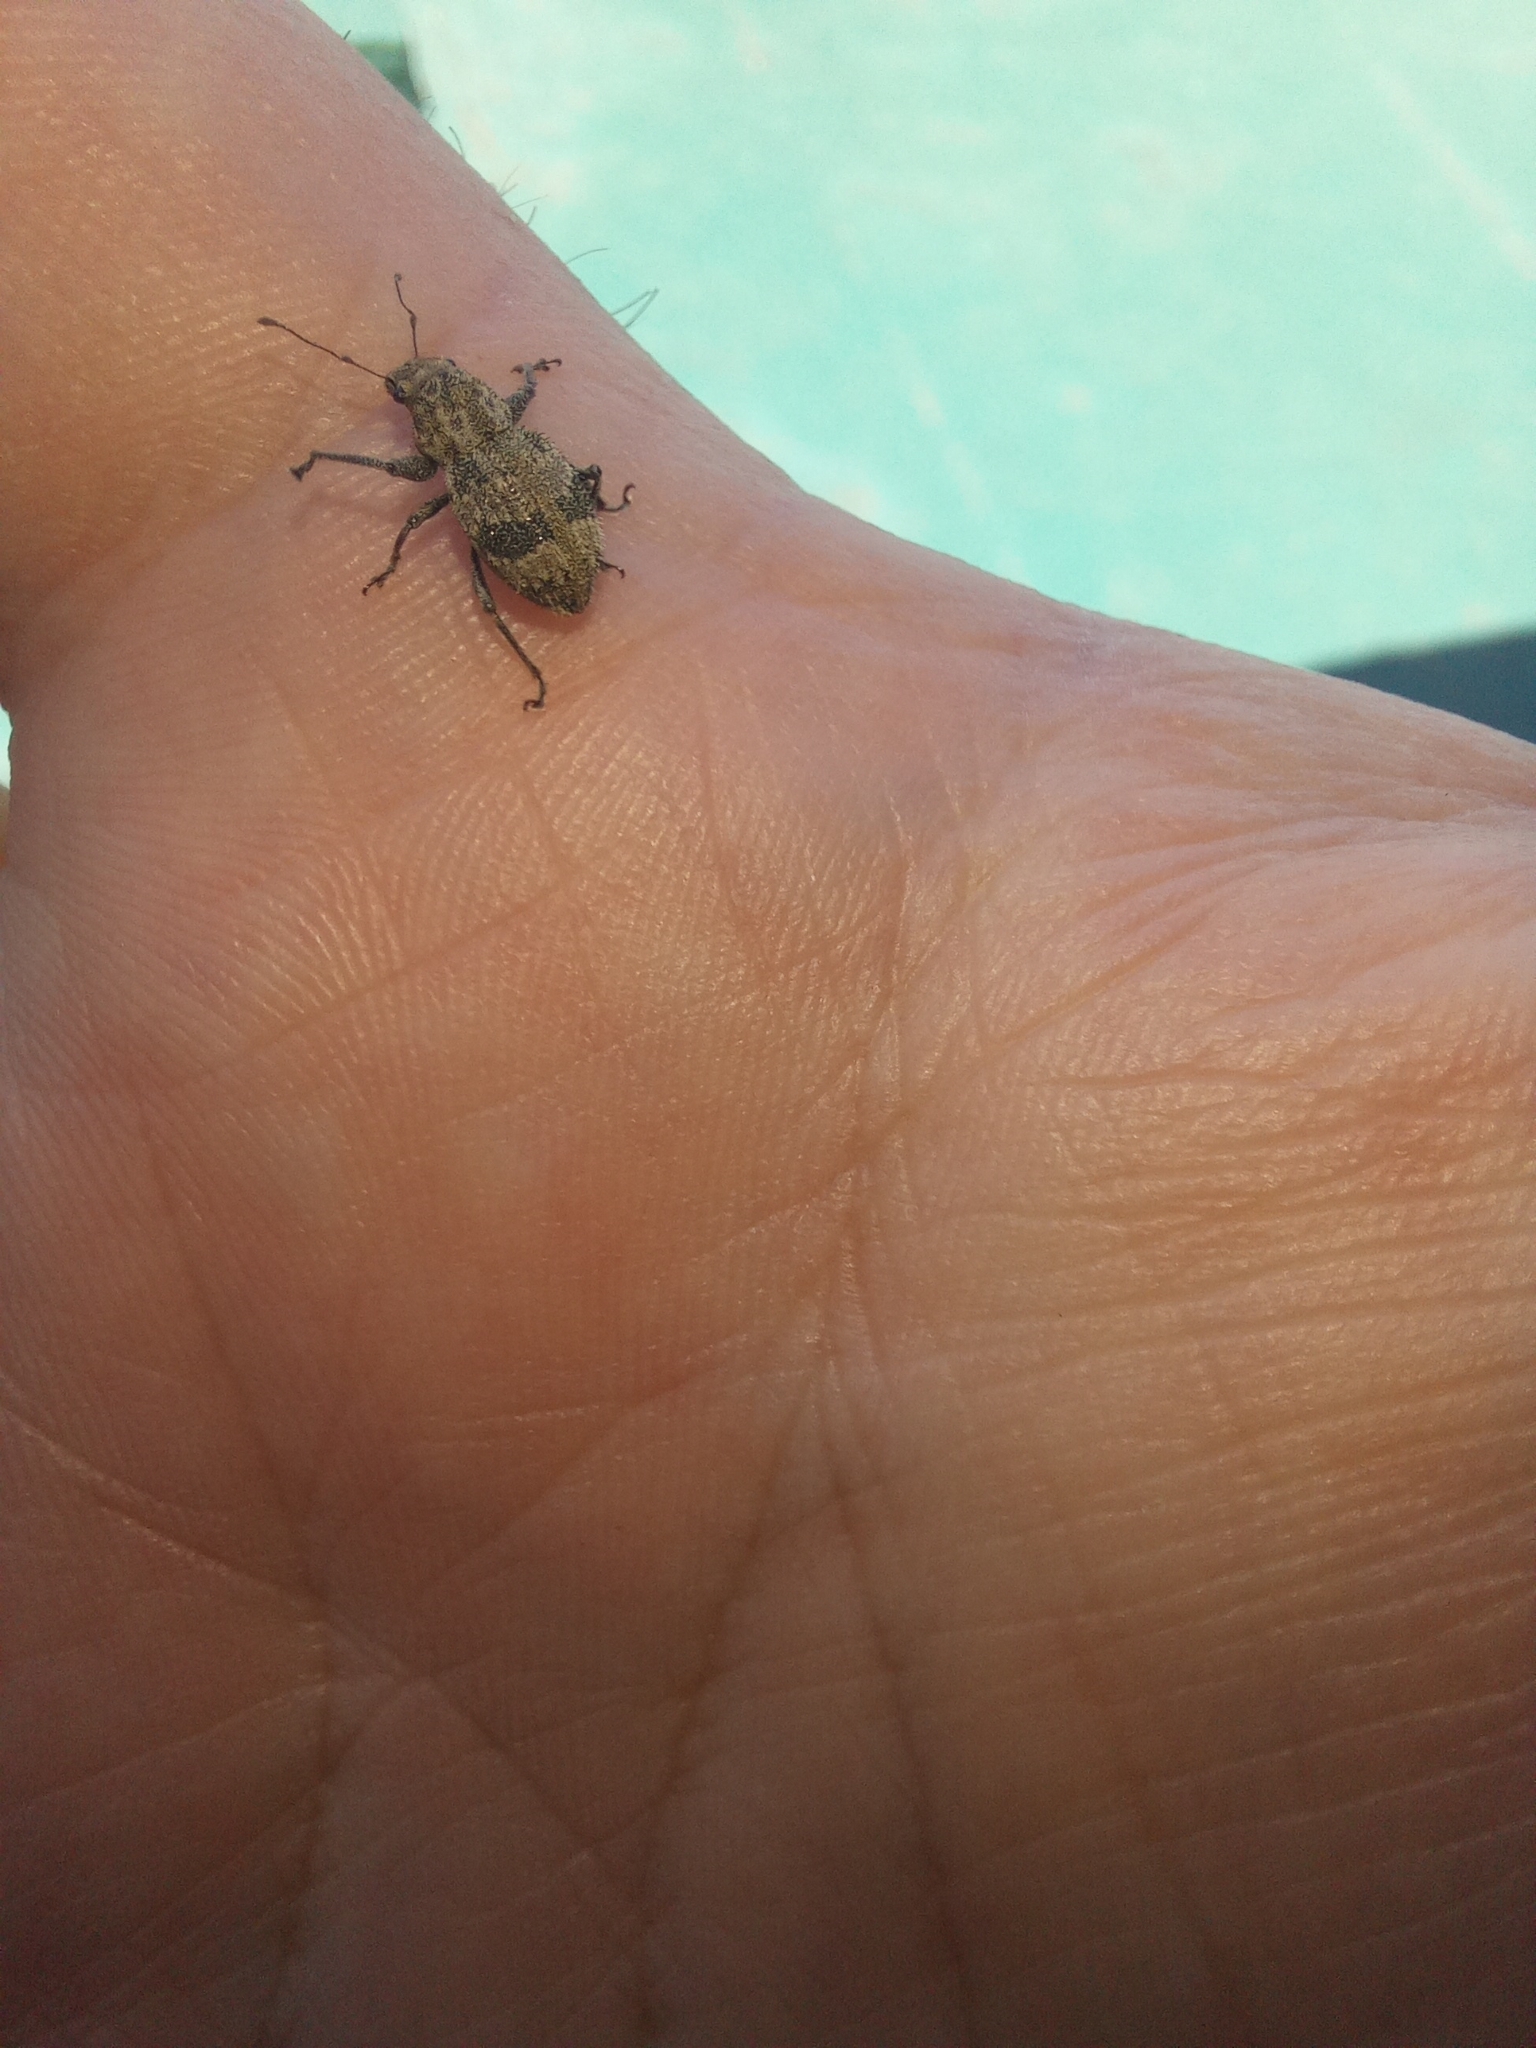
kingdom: Animalia
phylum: Arthropoda
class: Insecta
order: Coleoptera
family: Curculionidae
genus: Pantomorus
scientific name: Pantomorus
